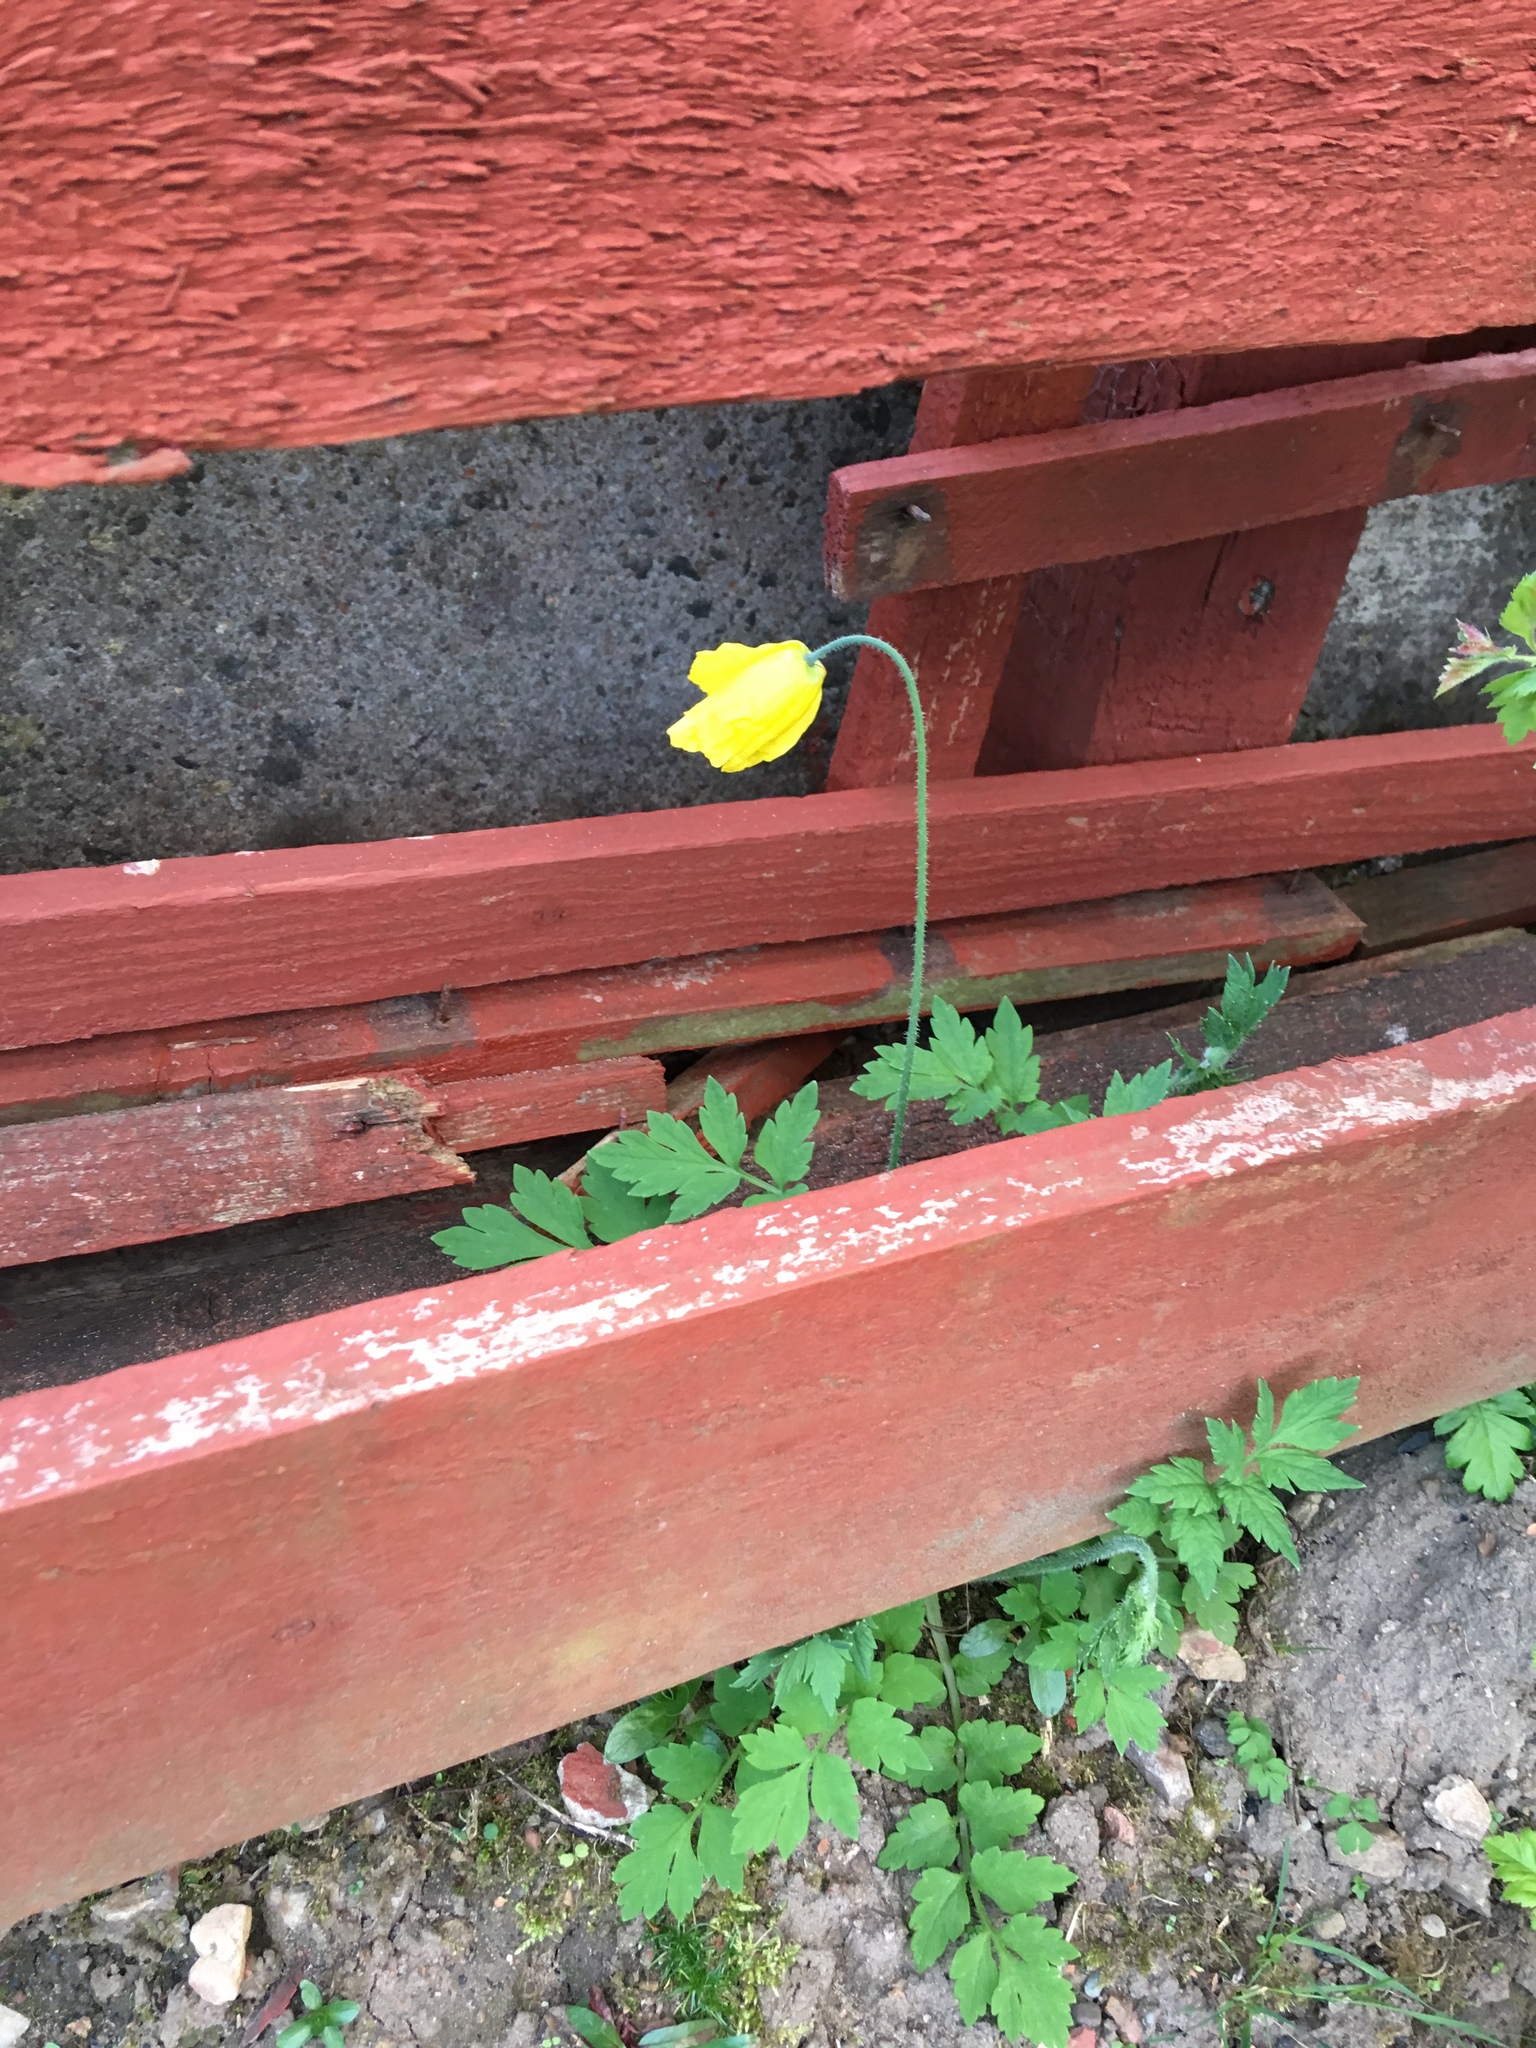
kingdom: Plantae
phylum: Tracheophyta
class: Magnoliopsida
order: Ranunculales
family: Papaveraceae
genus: Papaver
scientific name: Papaver cambricum
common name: Poppy
